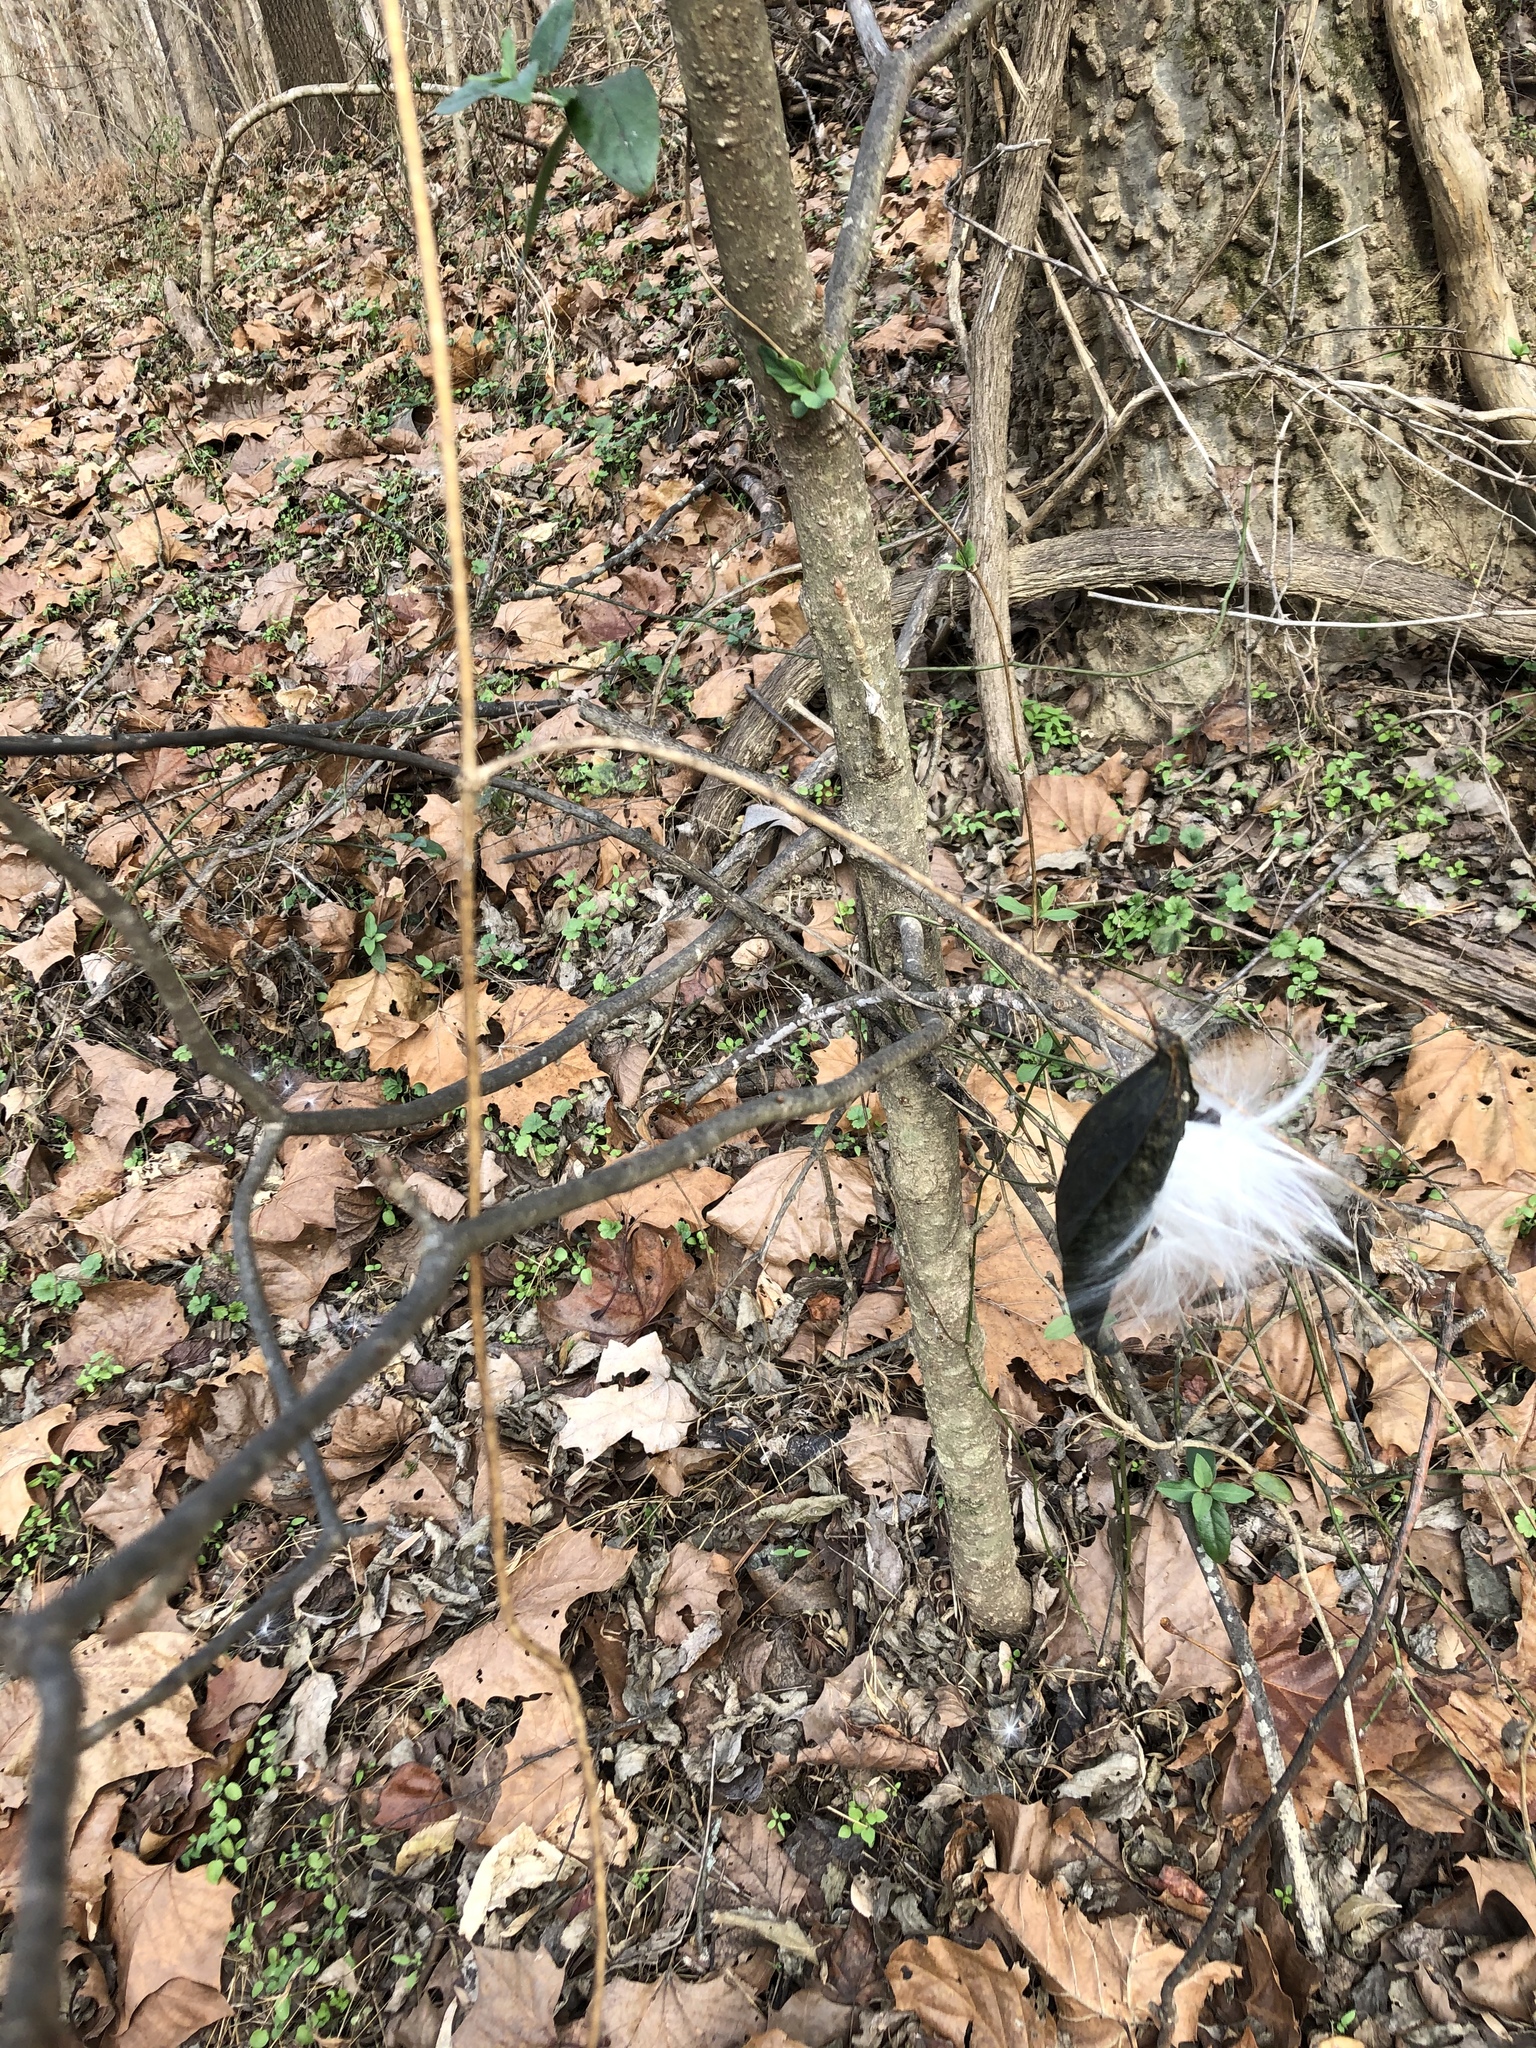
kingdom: Plantae
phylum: Tracheophyta
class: Magnoliopsida
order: Gentianales
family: Apocynaceae
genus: Gonolobus
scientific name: Gonolobus suberosus
